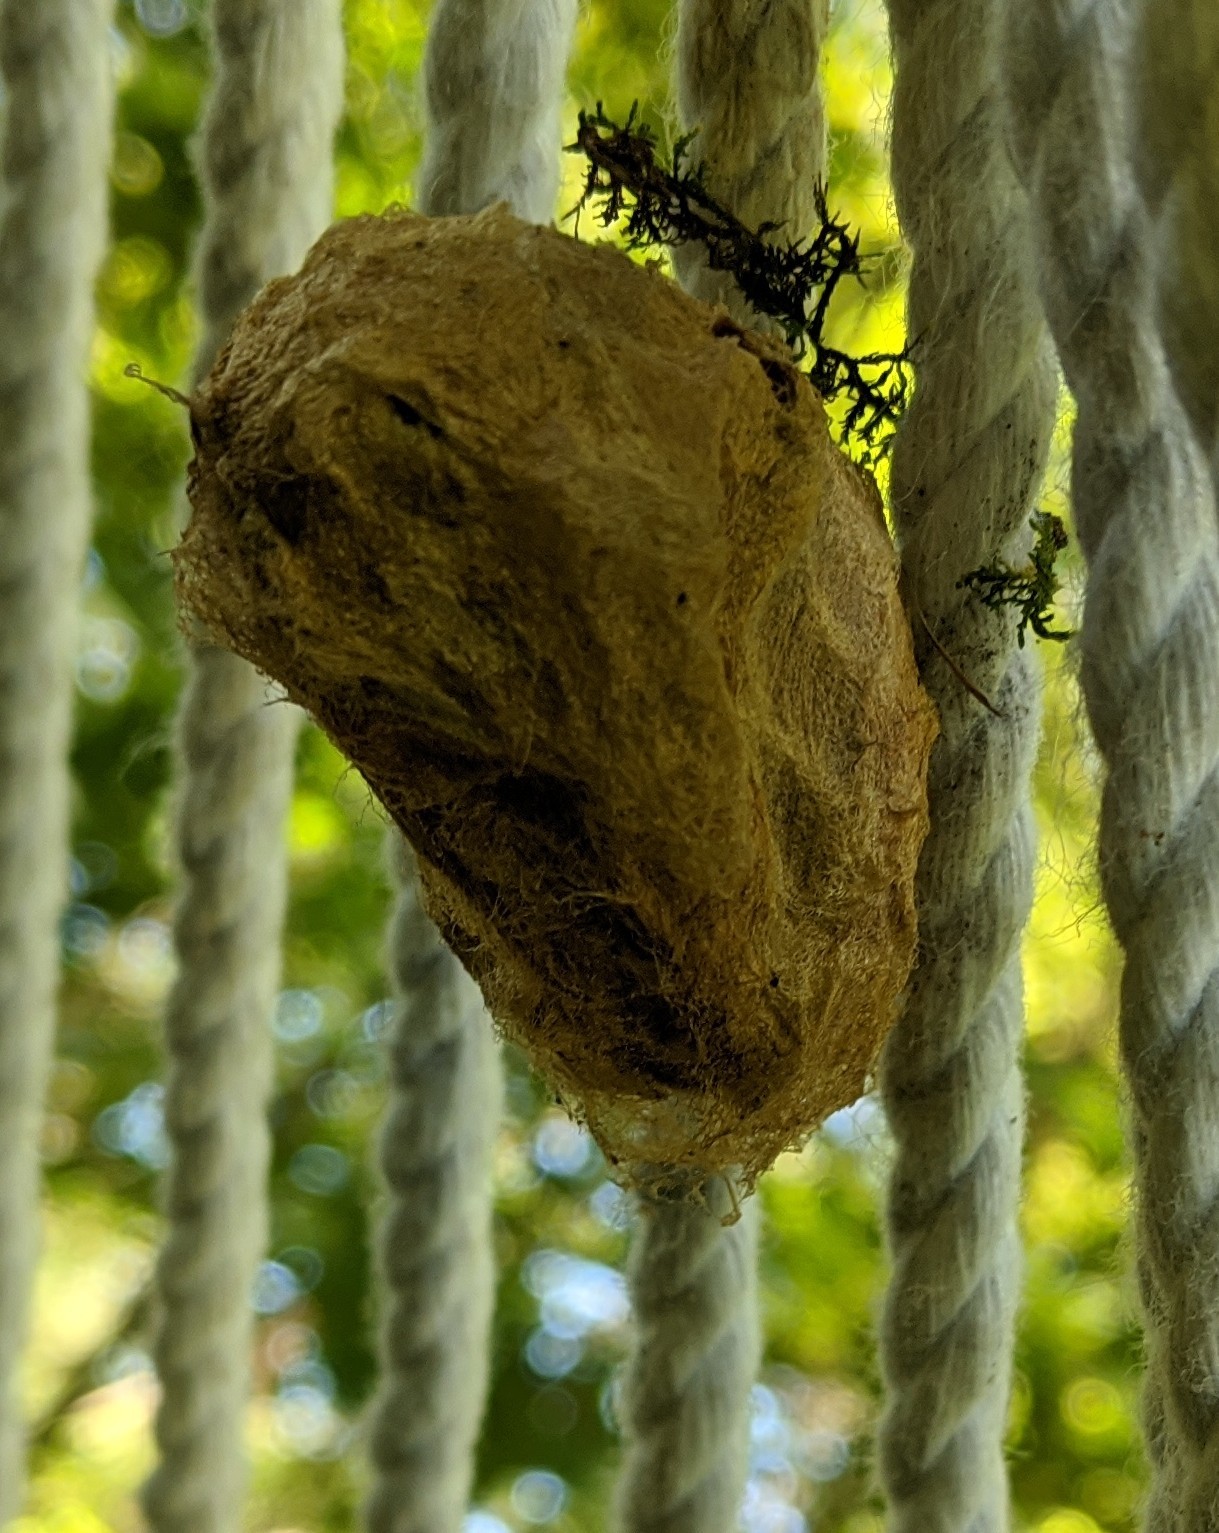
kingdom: Animalia
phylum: Arthropoda
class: Insecta
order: Lepidoptera
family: Saturniidae
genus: Antheraea
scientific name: Antheraea polyphemus
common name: Polyphemus moth
